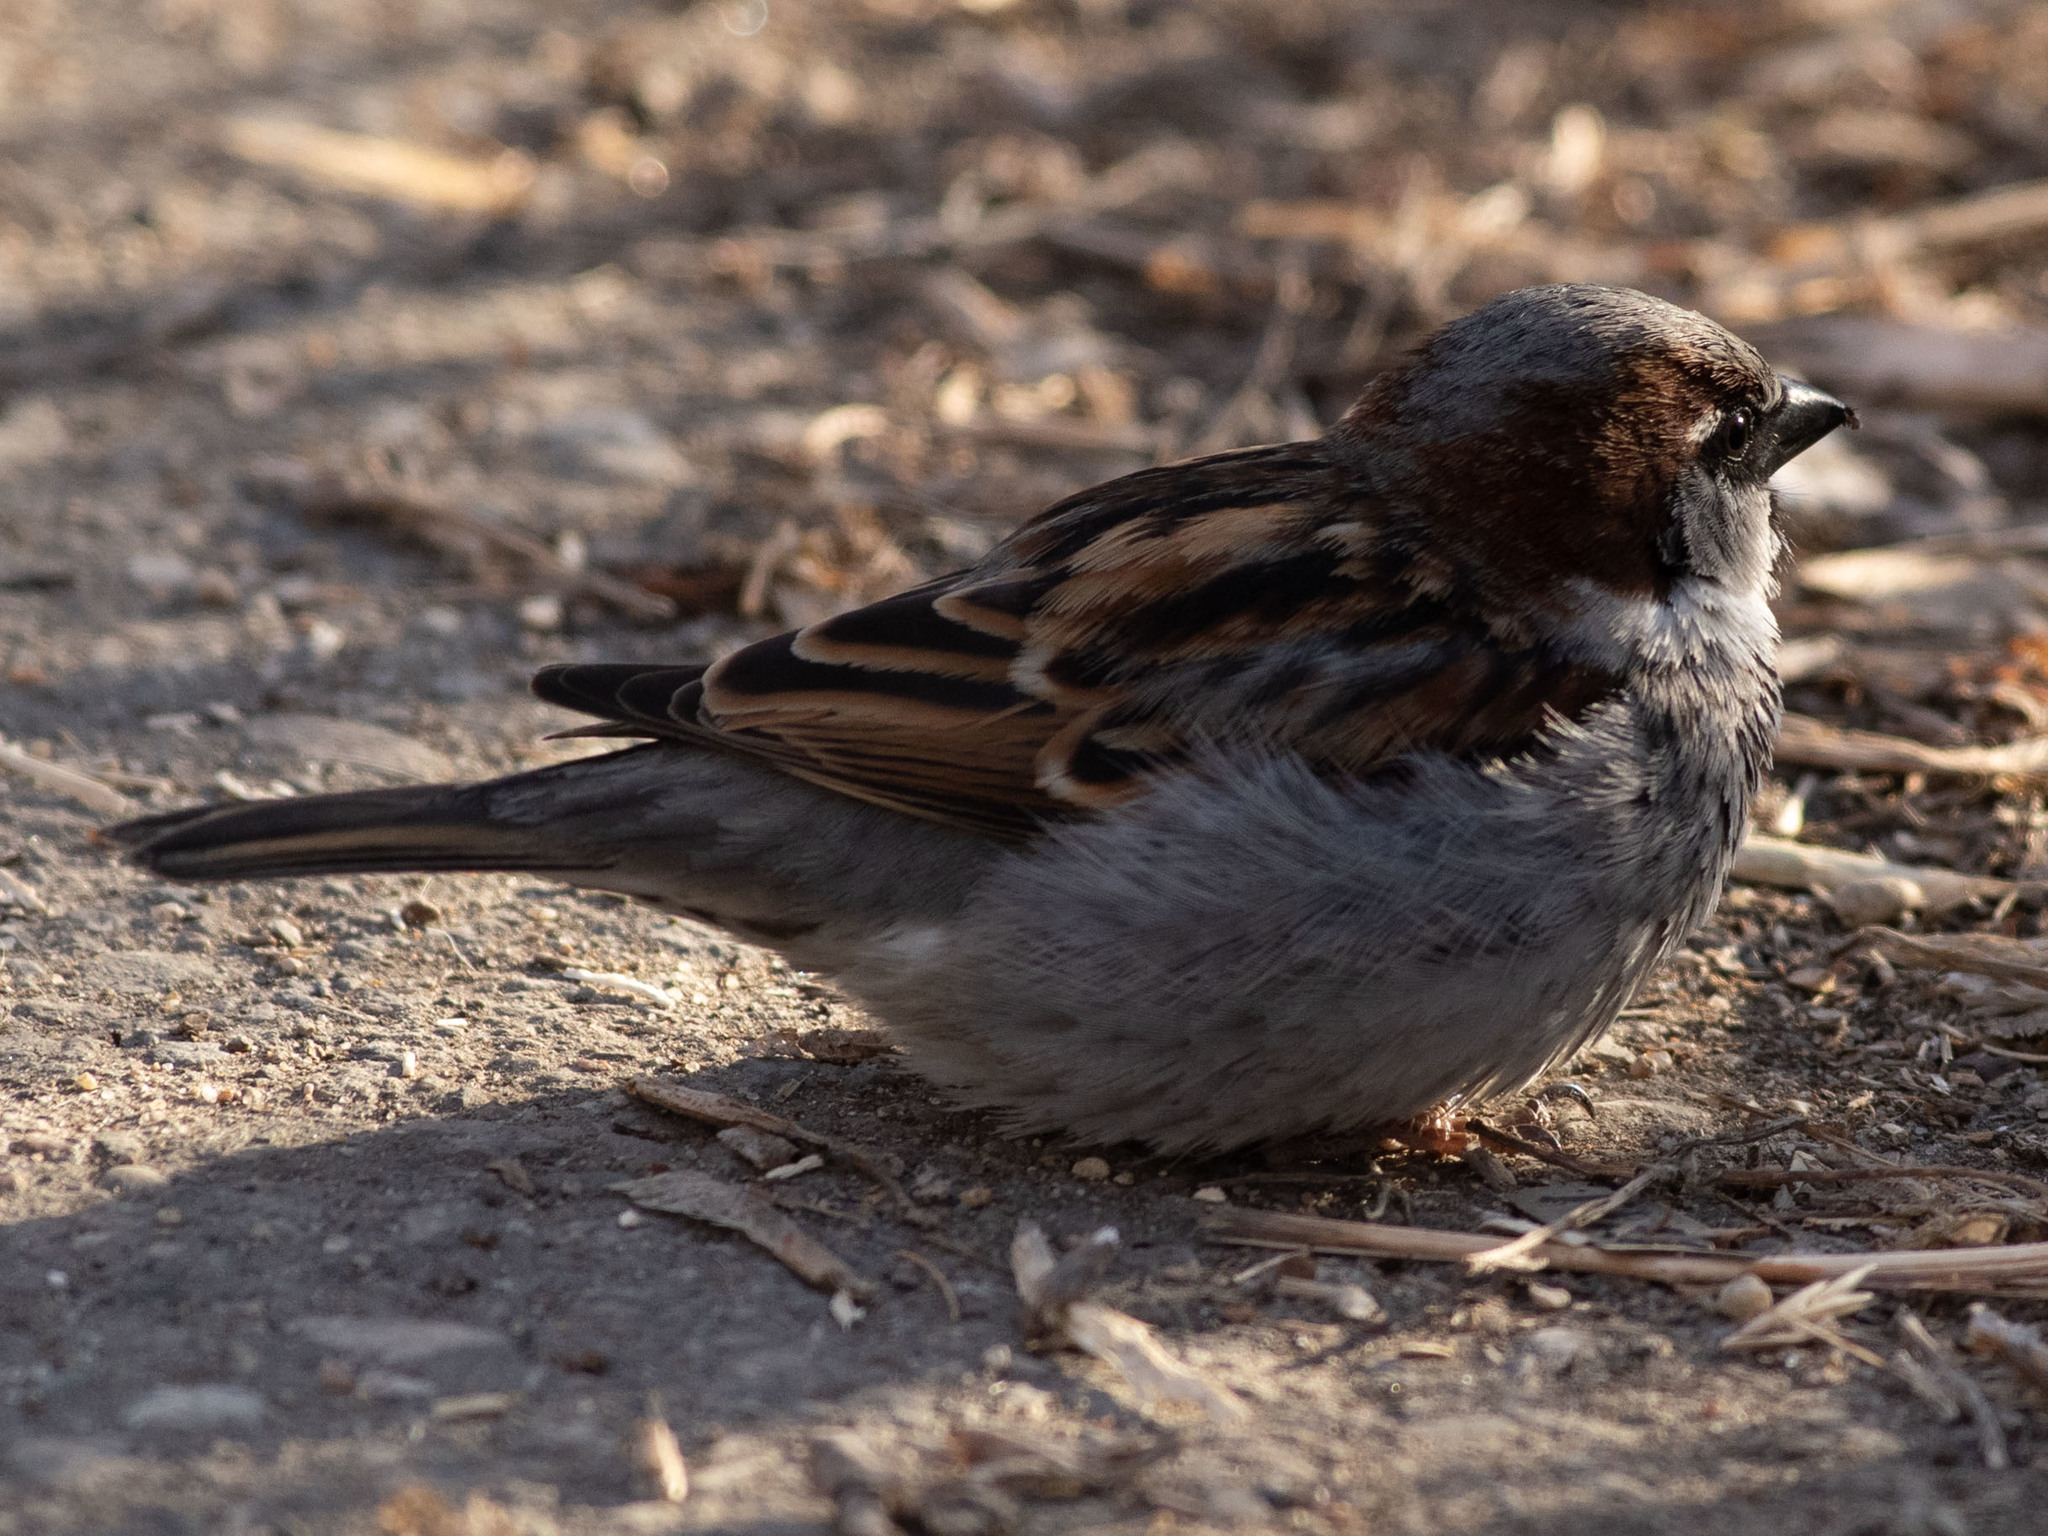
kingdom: Animalia
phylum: Chordata
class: Aves
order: Passeriformes
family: Passeridae
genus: Passer
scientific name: Passer domesticus
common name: House sparrow
